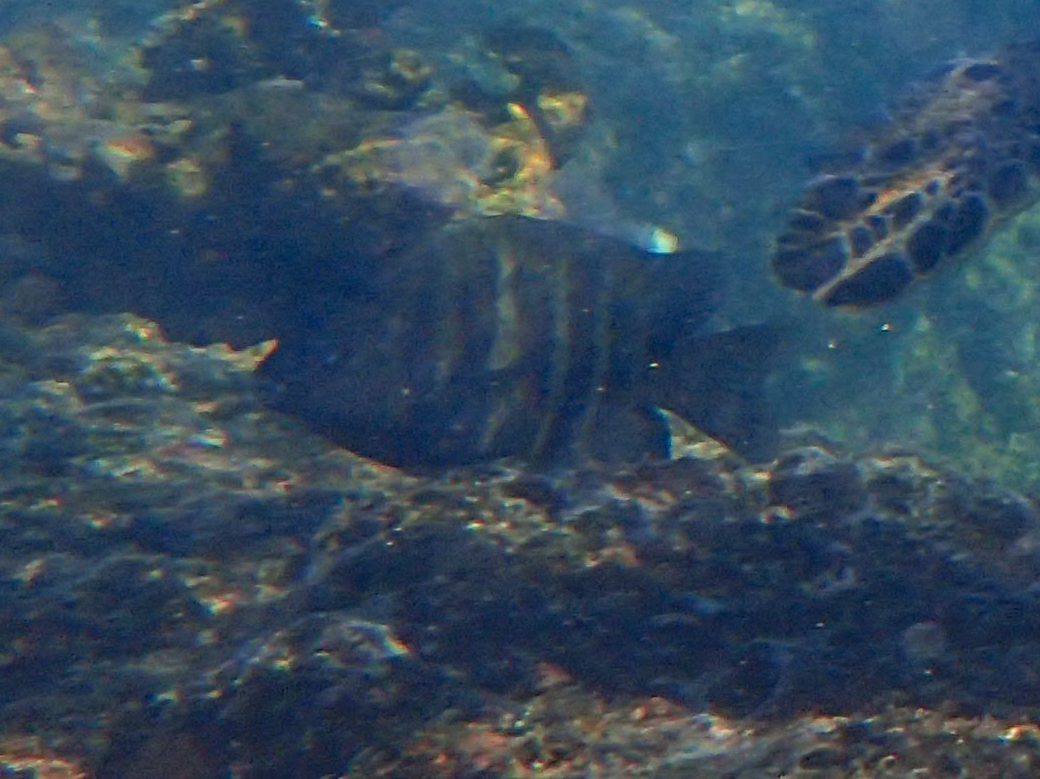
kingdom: Animalia
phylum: Chordata
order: Perciformes
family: Pomacentridae
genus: Abudefduf
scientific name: Abudefduf sordidus
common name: Blackspot sergeant
